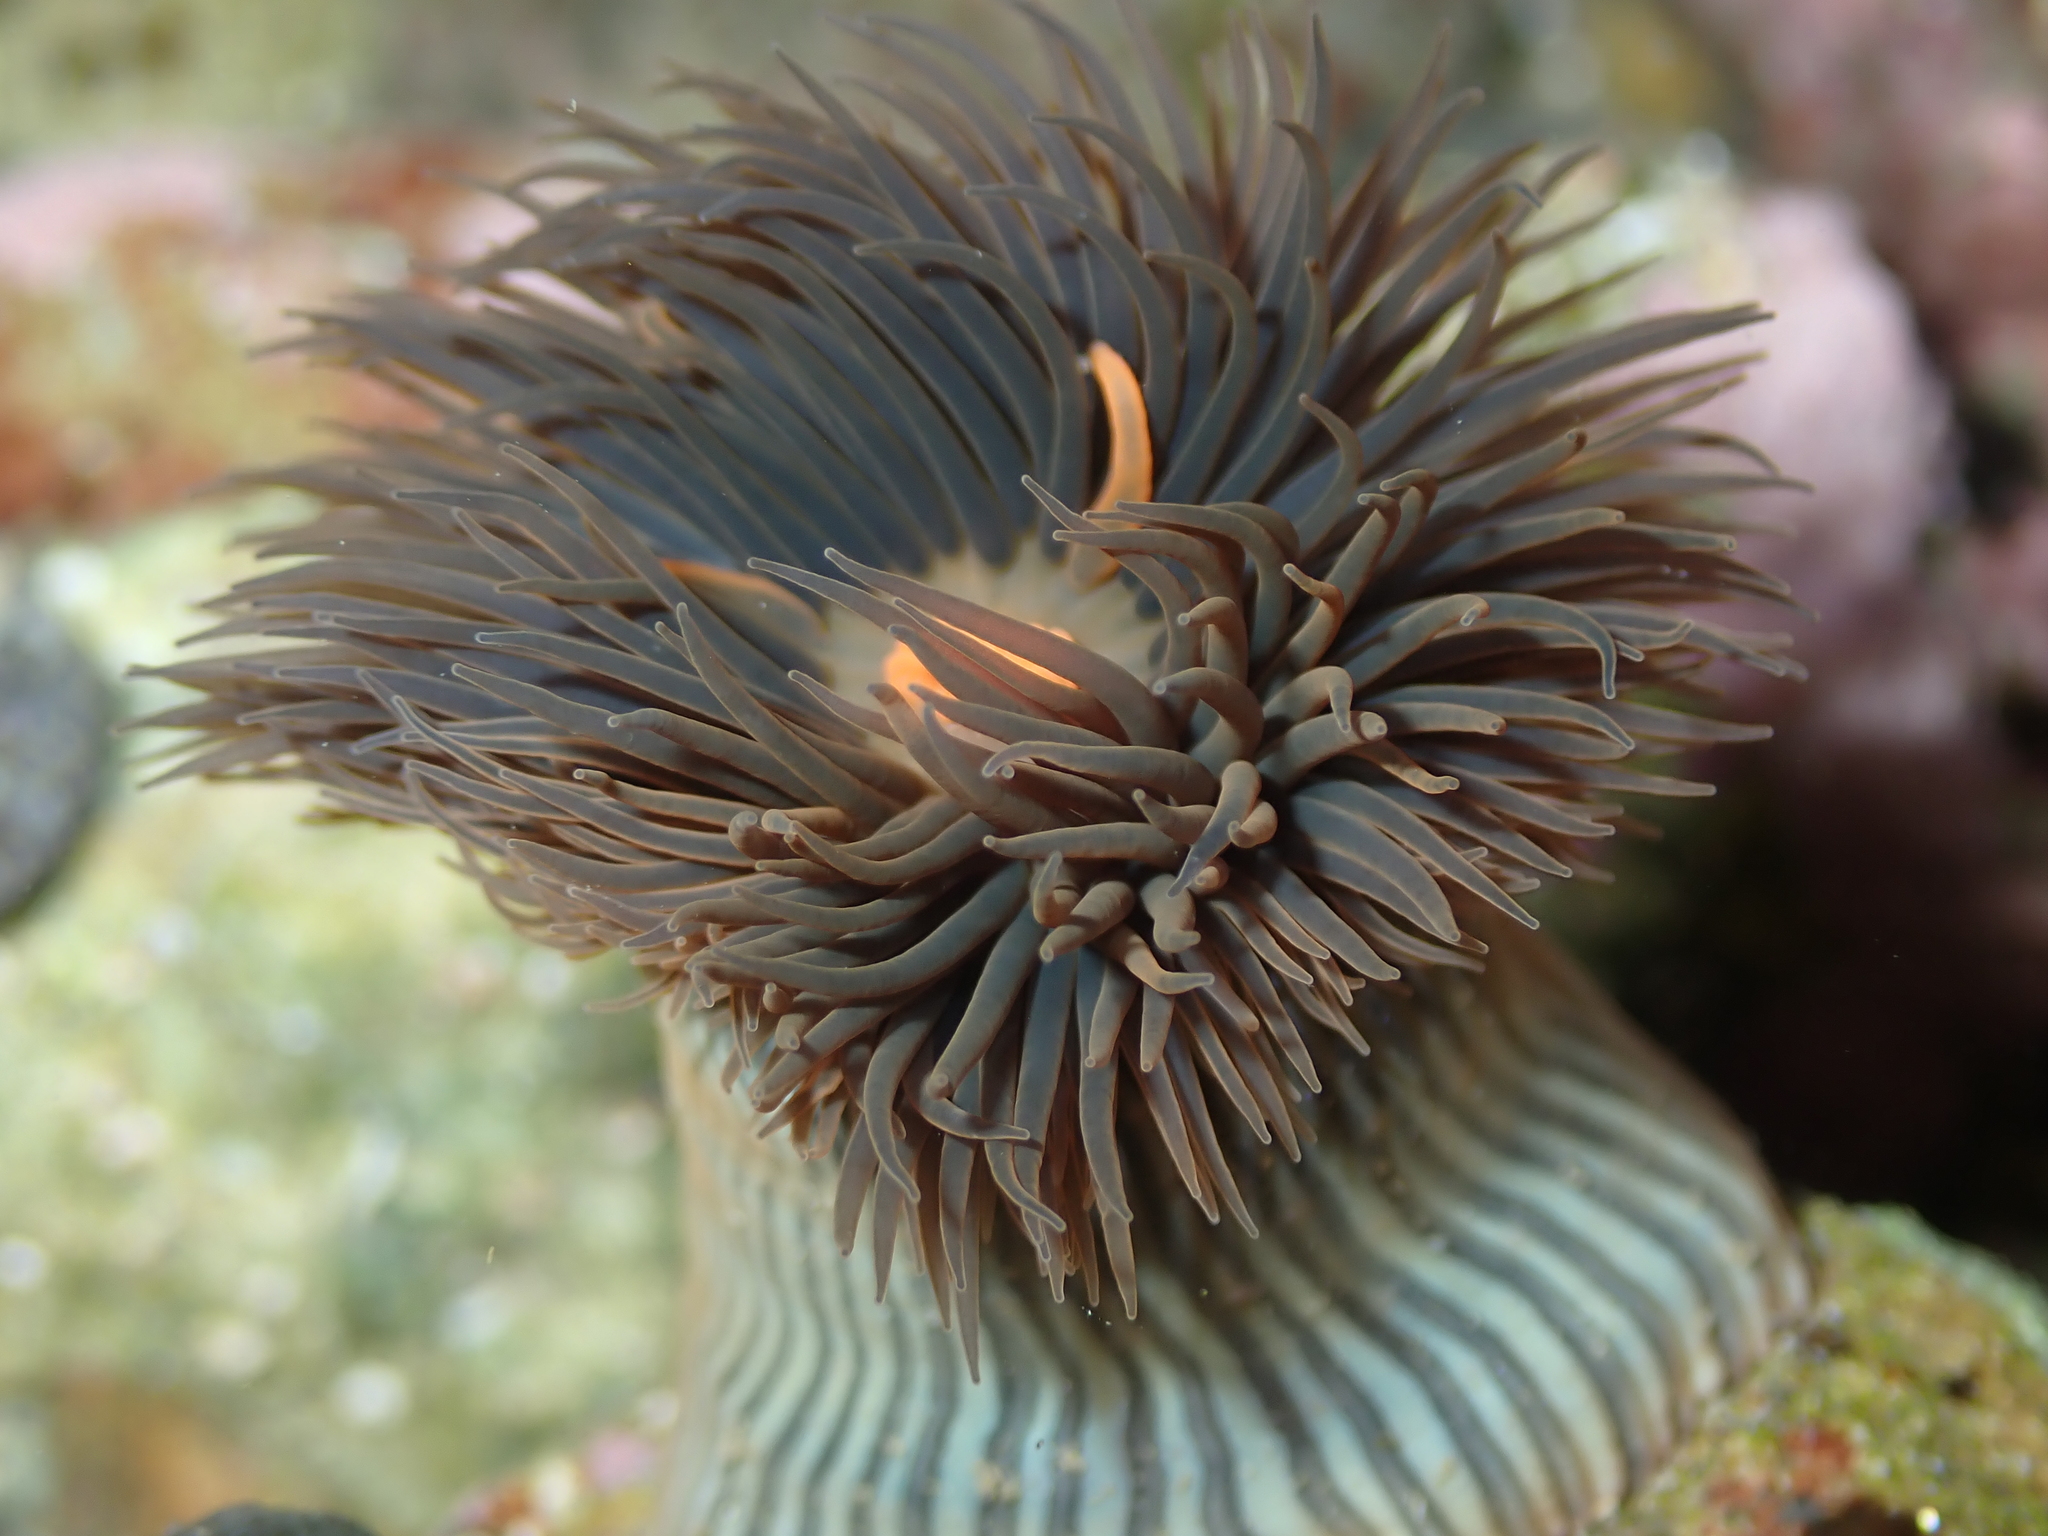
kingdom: Animalia
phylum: Cnidaria
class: Anthozoa
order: Actiniaria
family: Diadumenidae
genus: Diadumene
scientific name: Diadumene neozelanica
